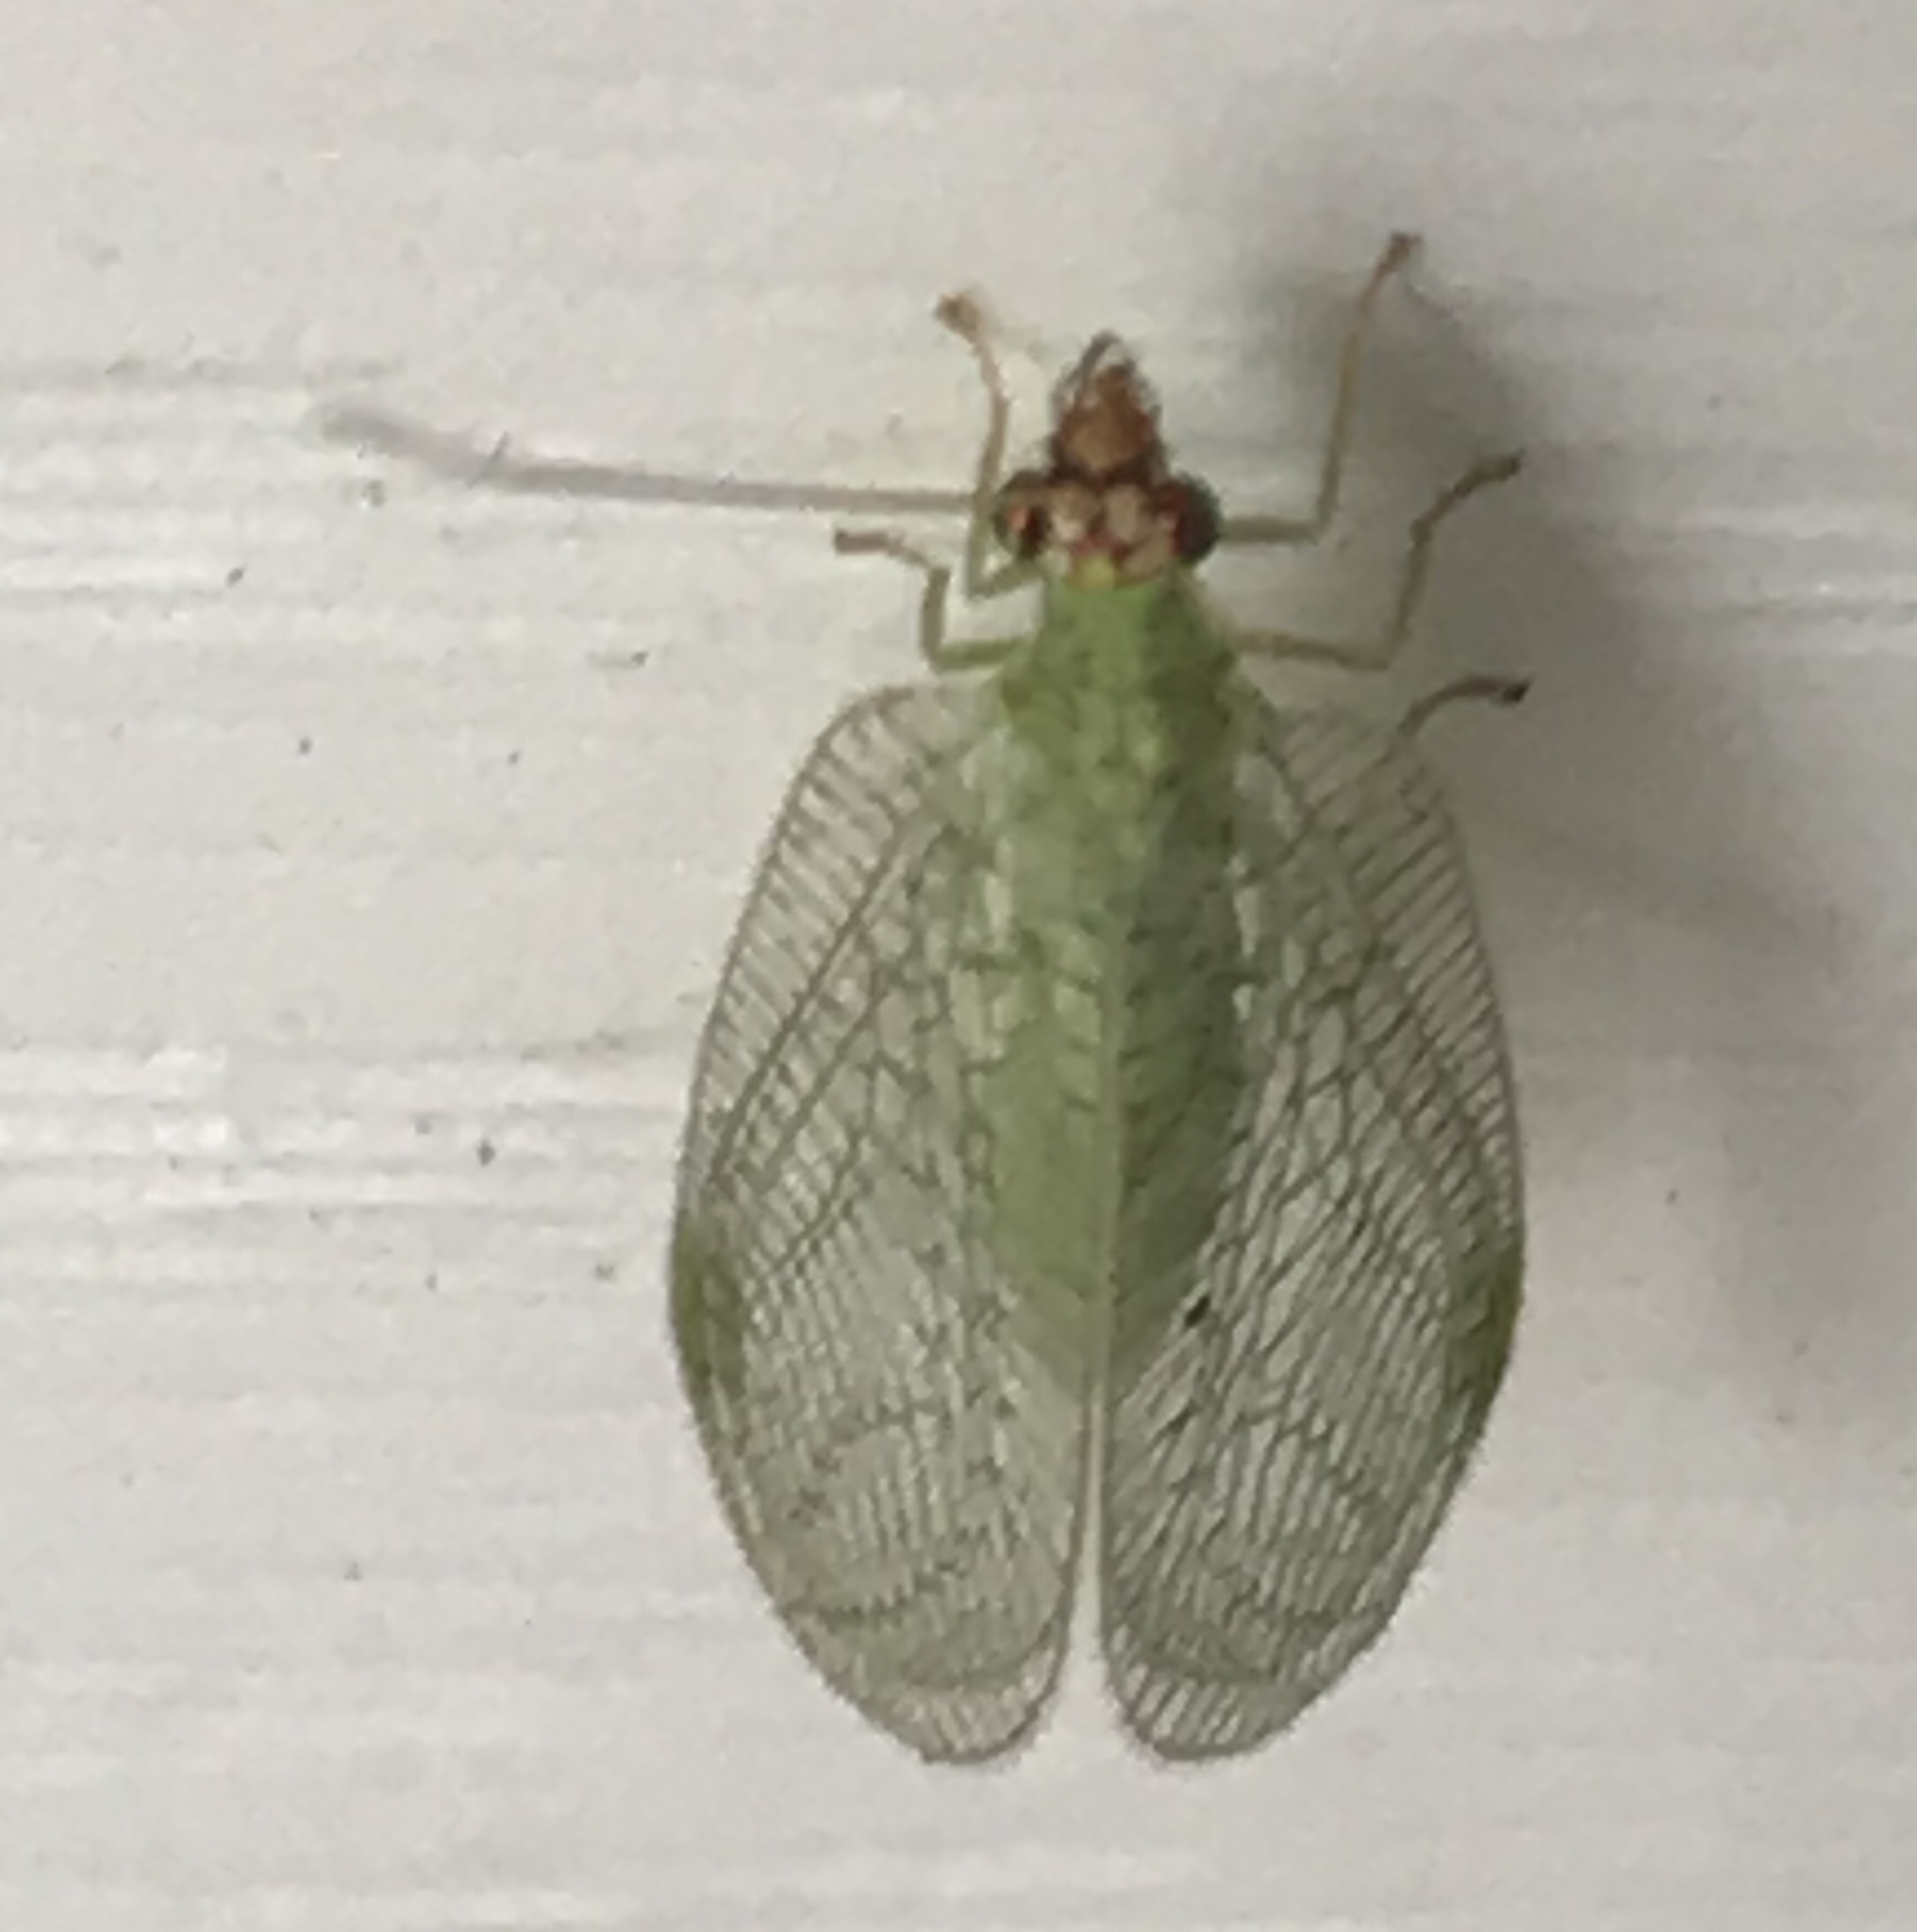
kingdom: Animalia
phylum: Arthropoda
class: Insecta
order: Neuroptera
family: Chrysopidae
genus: Chrysopa
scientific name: Chrysopa oculata
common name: Golden-eyed lacewing
